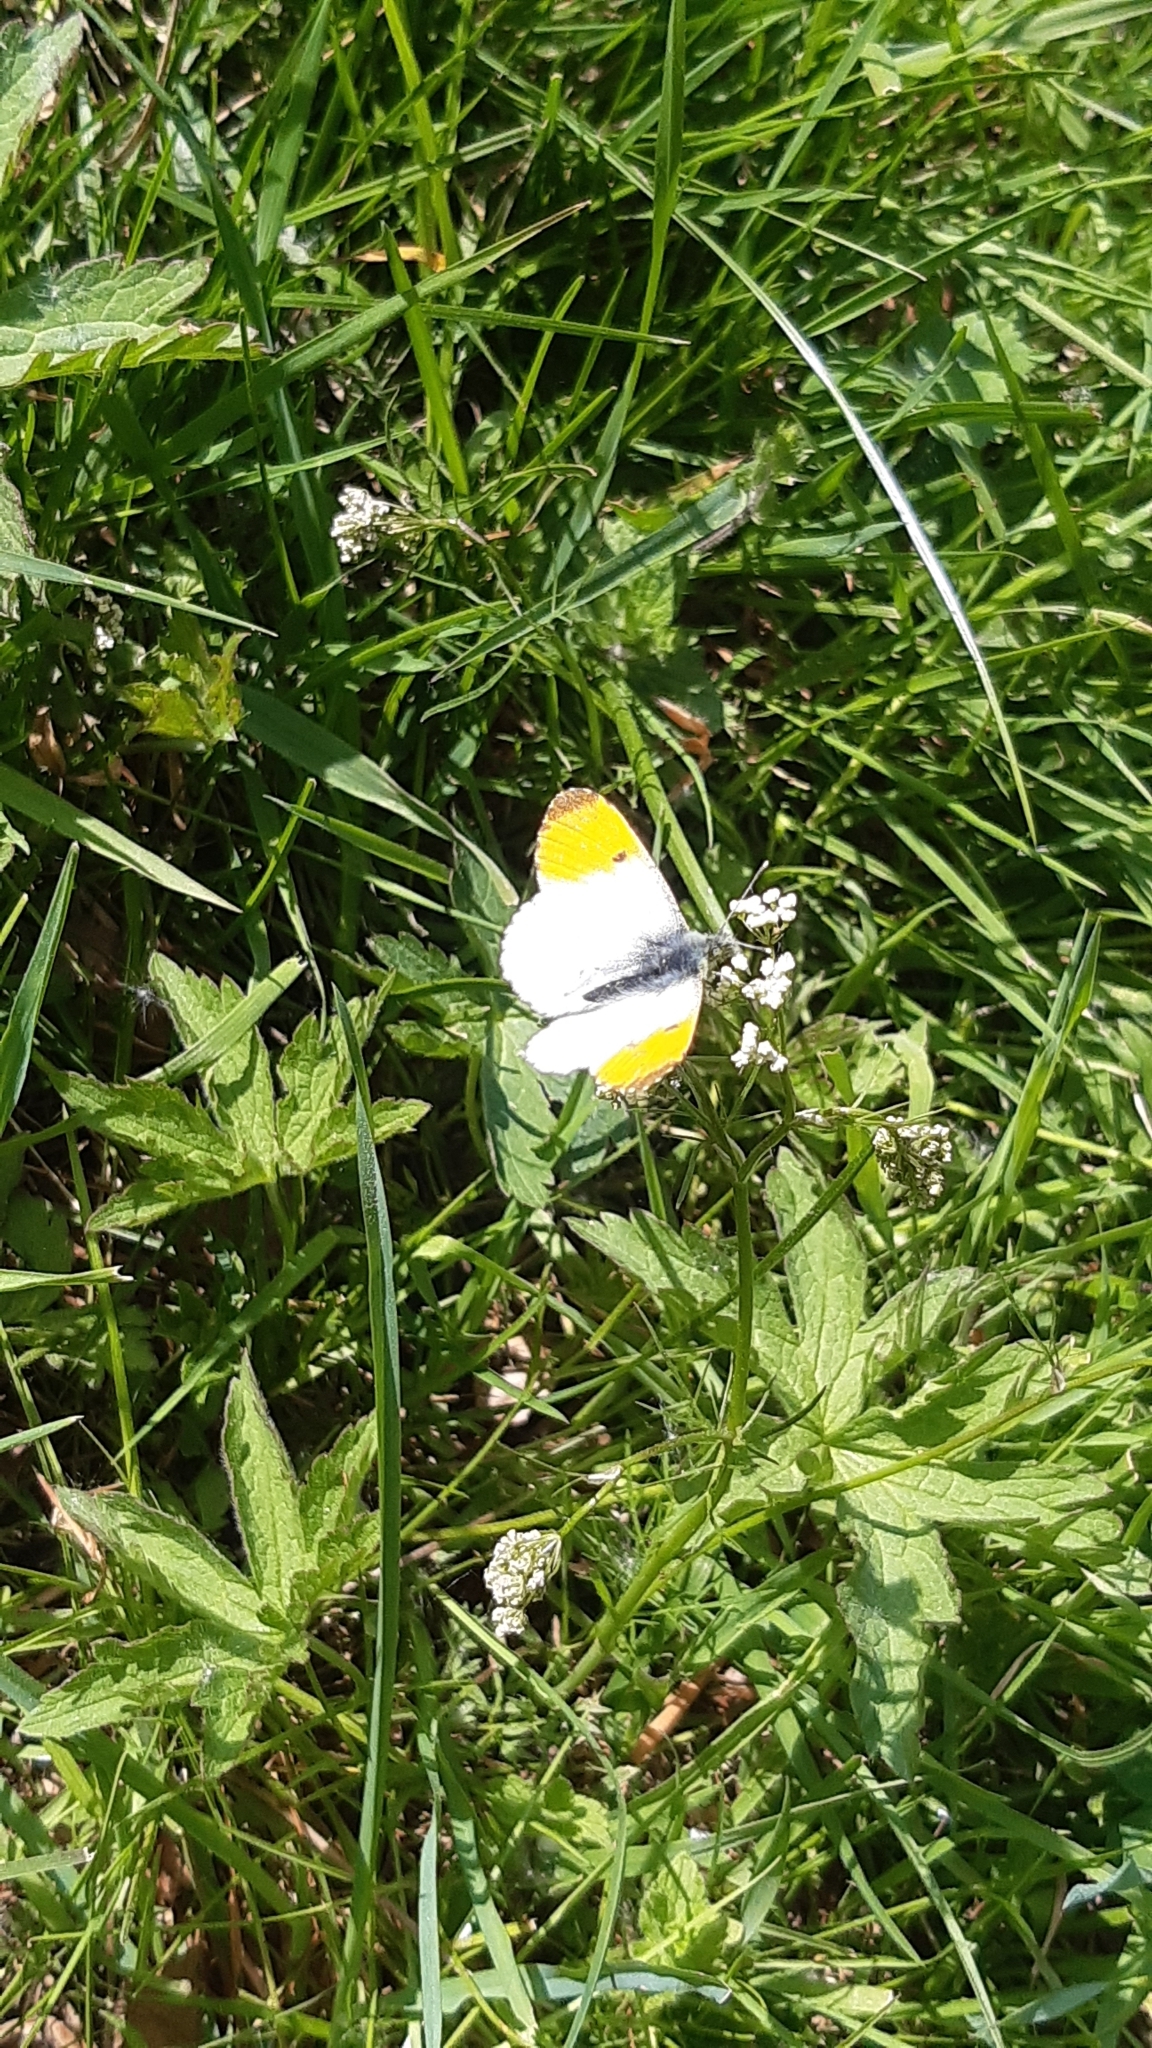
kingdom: Animalia
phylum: Arthropoda
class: Insecta
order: Lepidoptera
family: Pieridae
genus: Anthocharis
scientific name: Anthocharis cardamines
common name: Orange-tip
